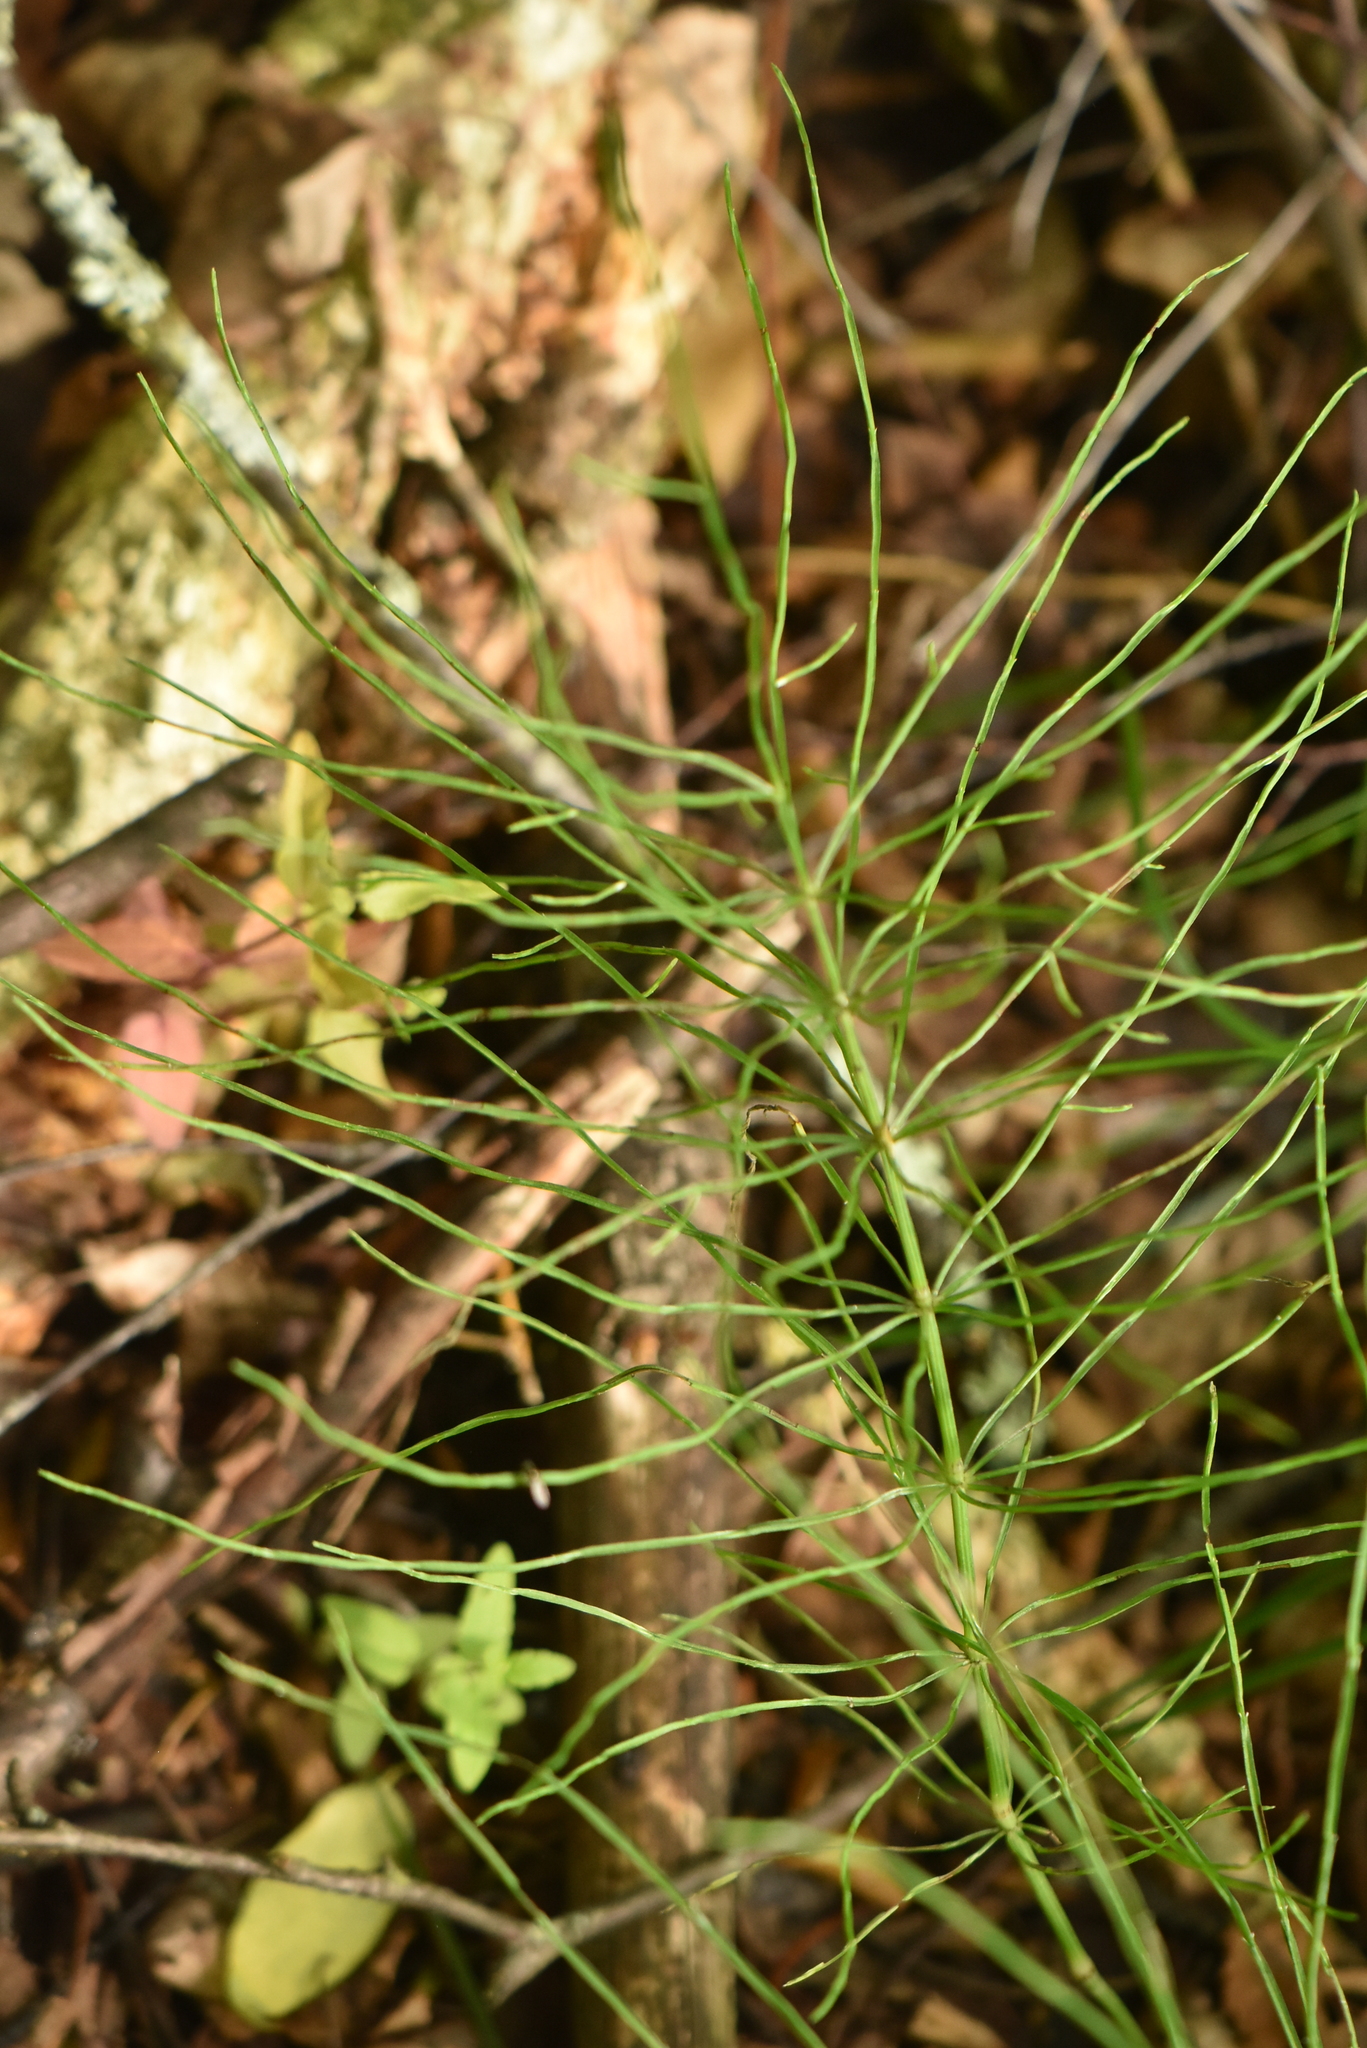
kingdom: Plantae
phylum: Tracheophyta
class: Polypodiopsida
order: Equisetales
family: Equisetaceae
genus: Equisetum
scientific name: Equisetum pratense
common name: Meadow horsetail
